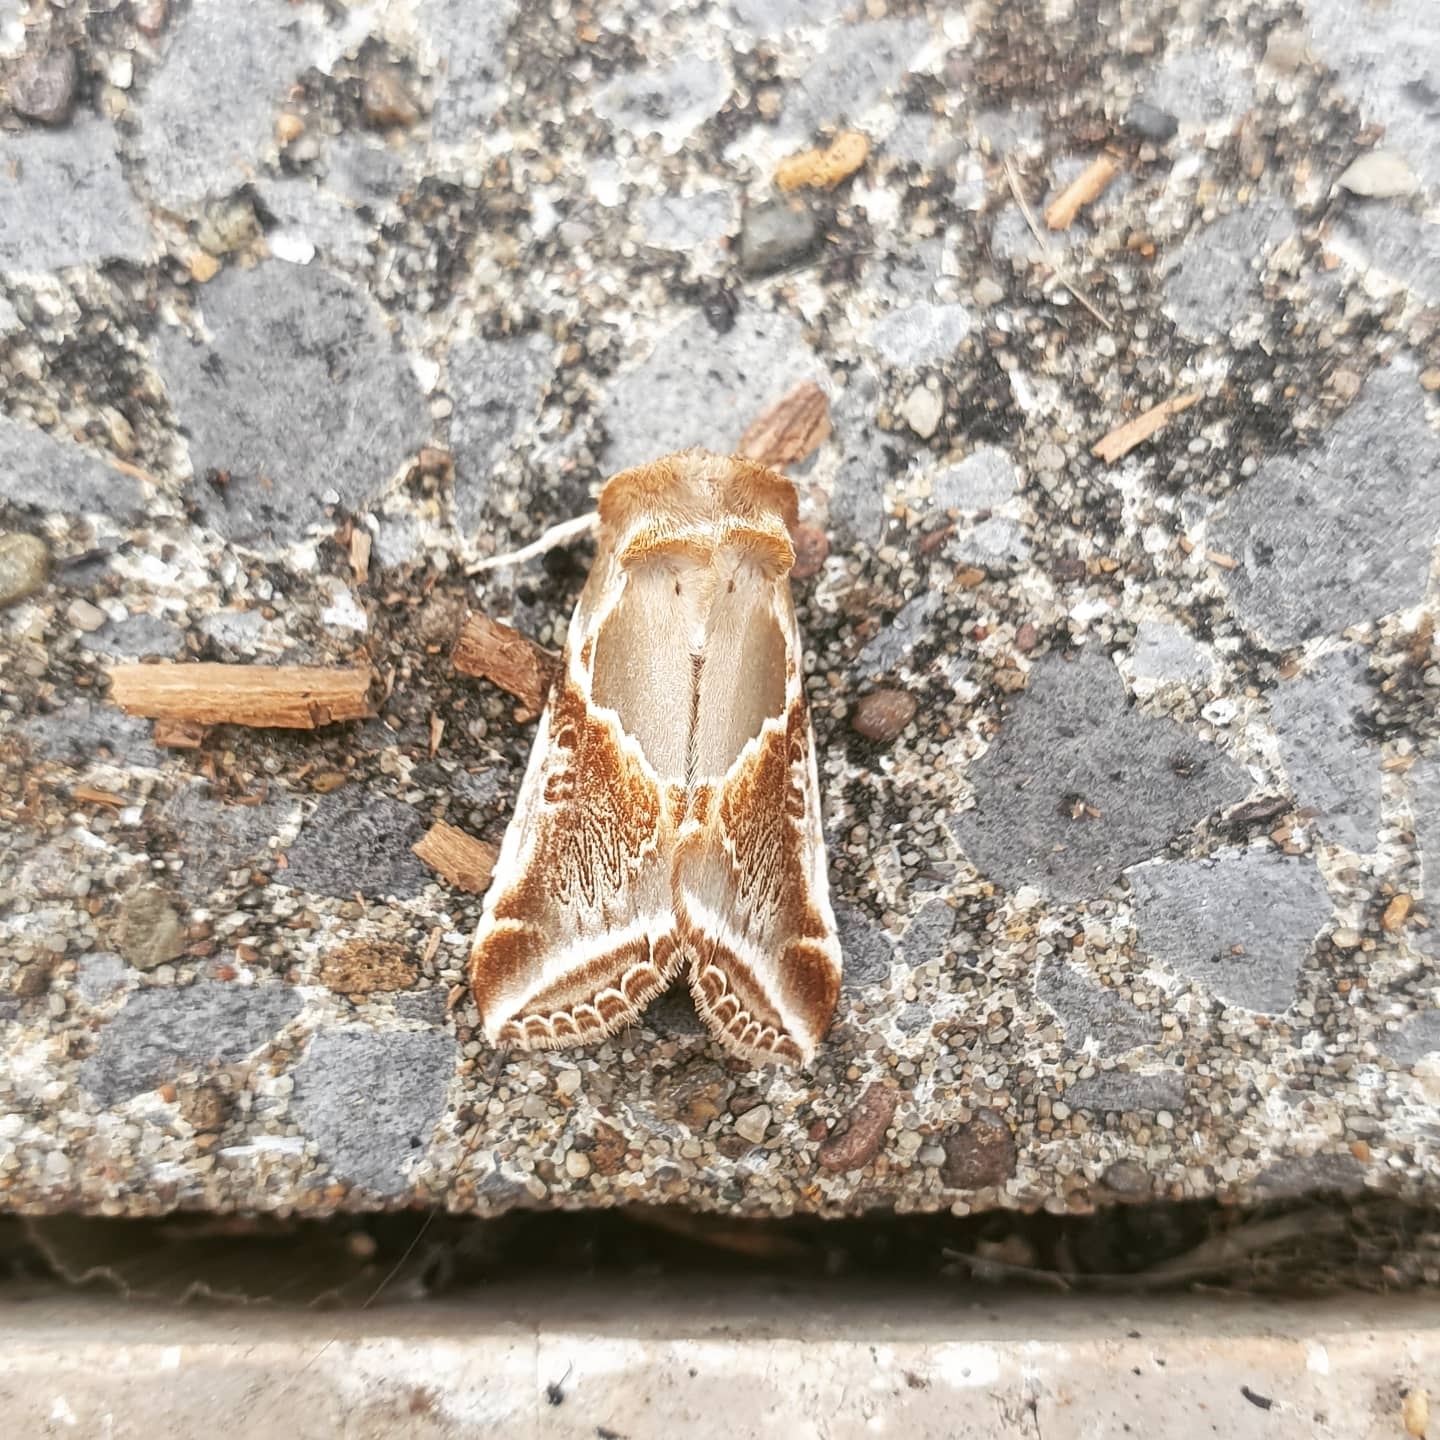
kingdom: Animalia
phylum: Arthropoda
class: Insecta
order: Lepidoptera
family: Drepanidae
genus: Habrosyne
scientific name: Habrosyne pyritoides
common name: Buff arches
